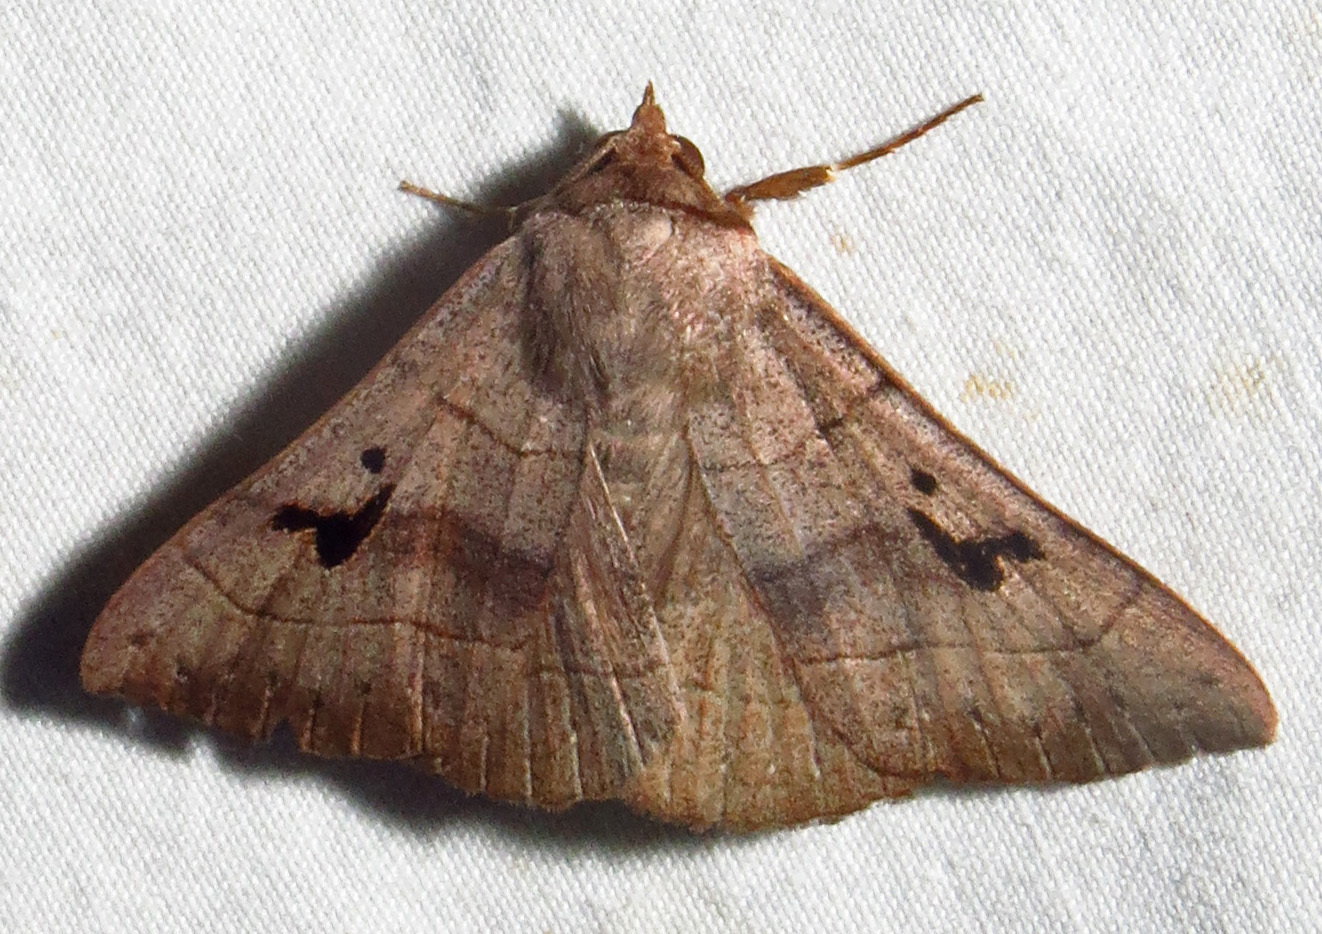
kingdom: Animalia
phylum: Arthropoda
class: Insecta
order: Lepidoptera
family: Erebidae
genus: Panopoda
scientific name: Panopoda carneicosta
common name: Brown panopoda moth
